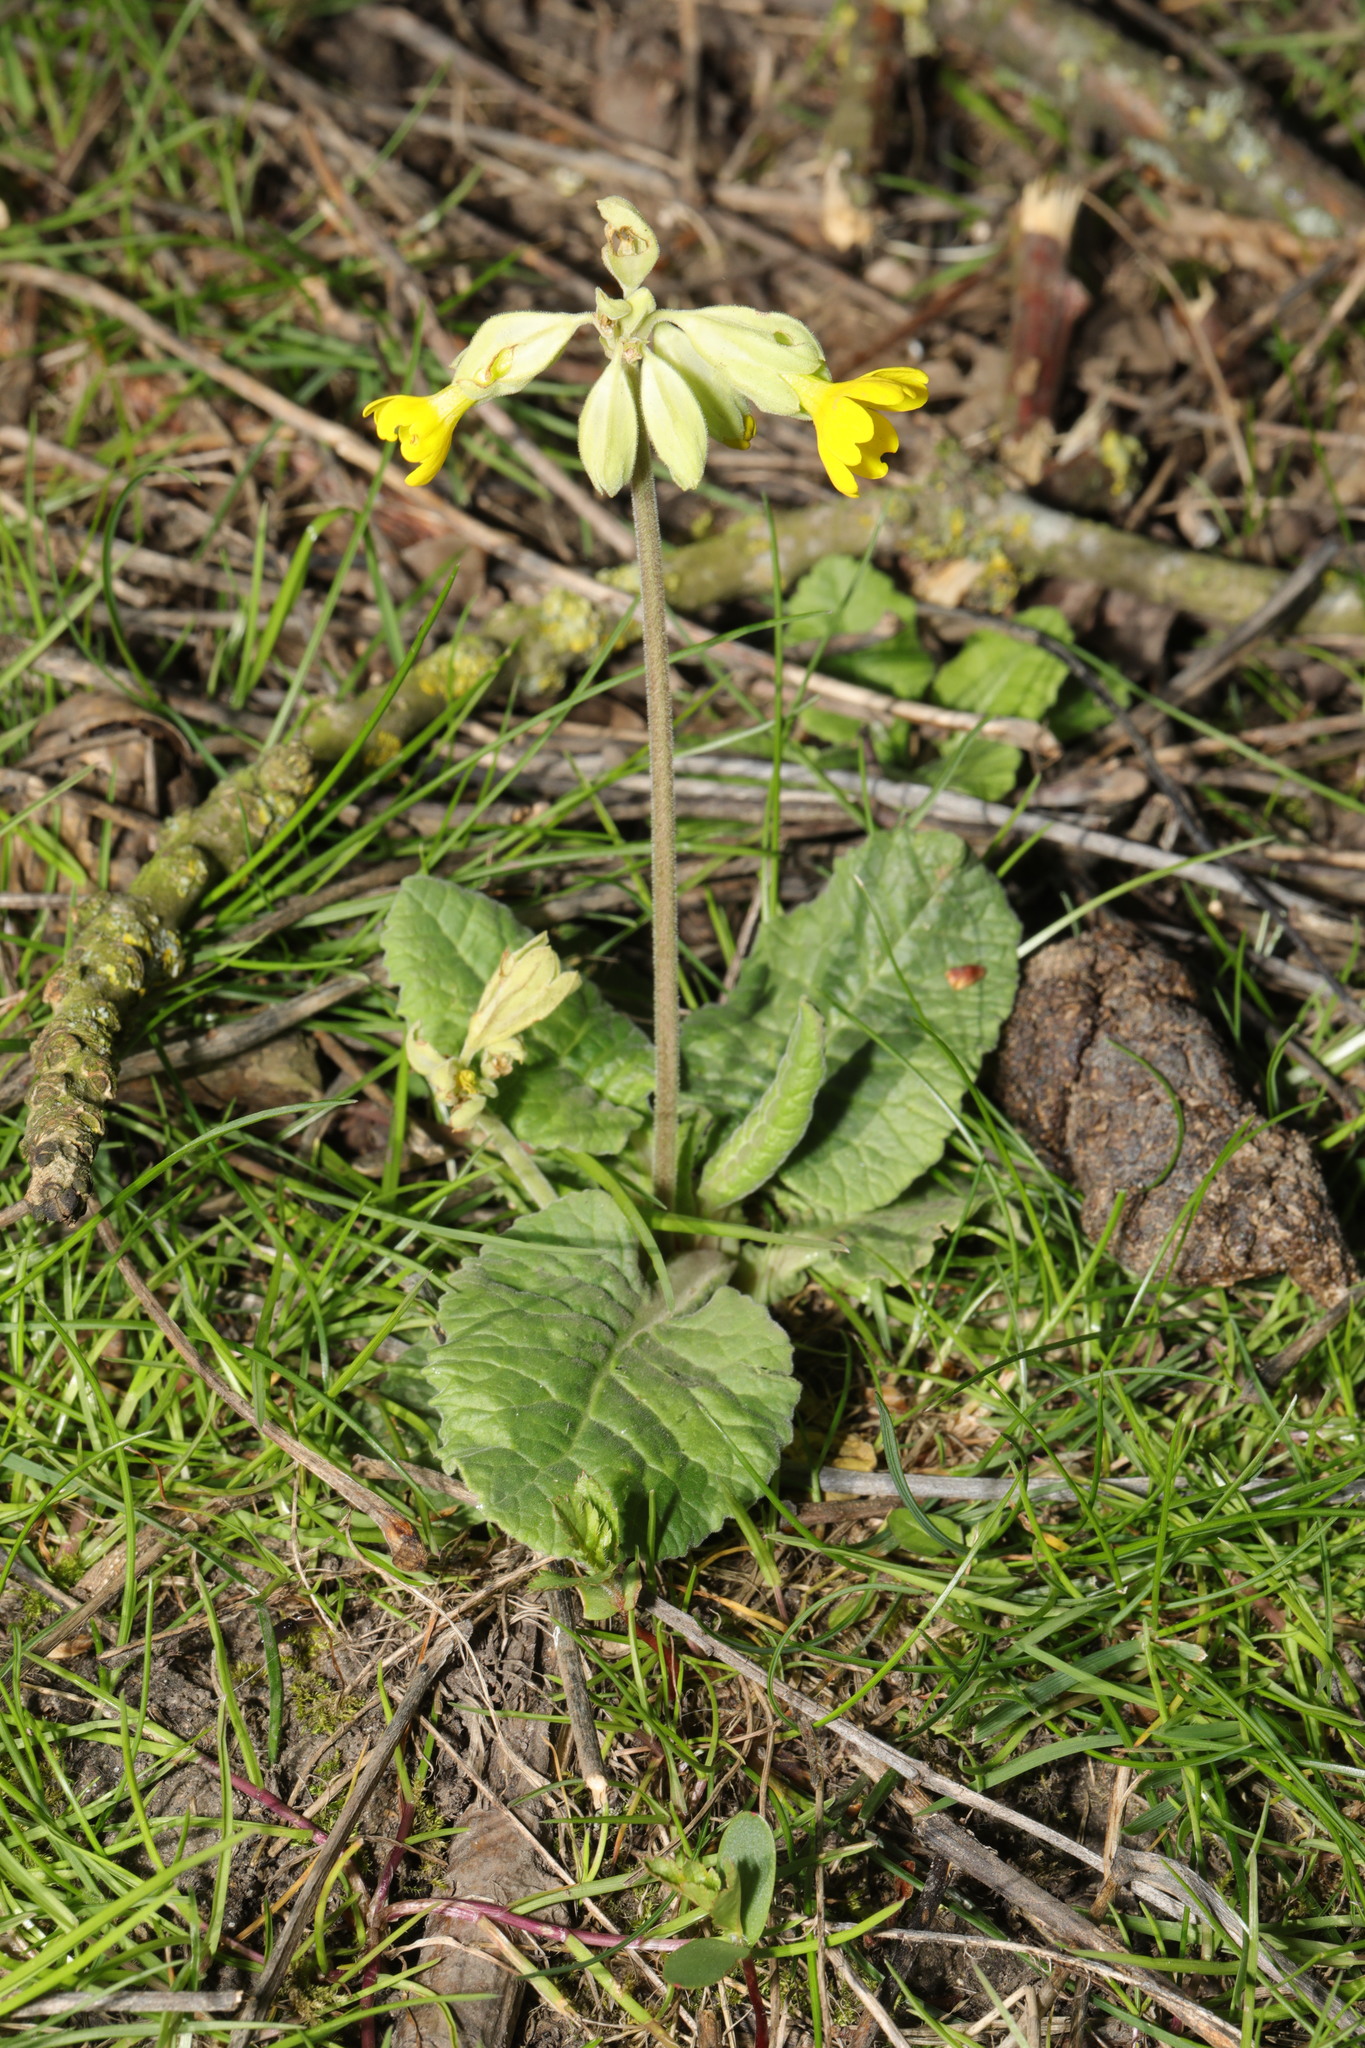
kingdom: Plantae
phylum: Tracheophyta
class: Magnoliopsida
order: Ericales
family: Primulaceae
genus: Primula
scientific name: Primula veris
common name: Cowslip
